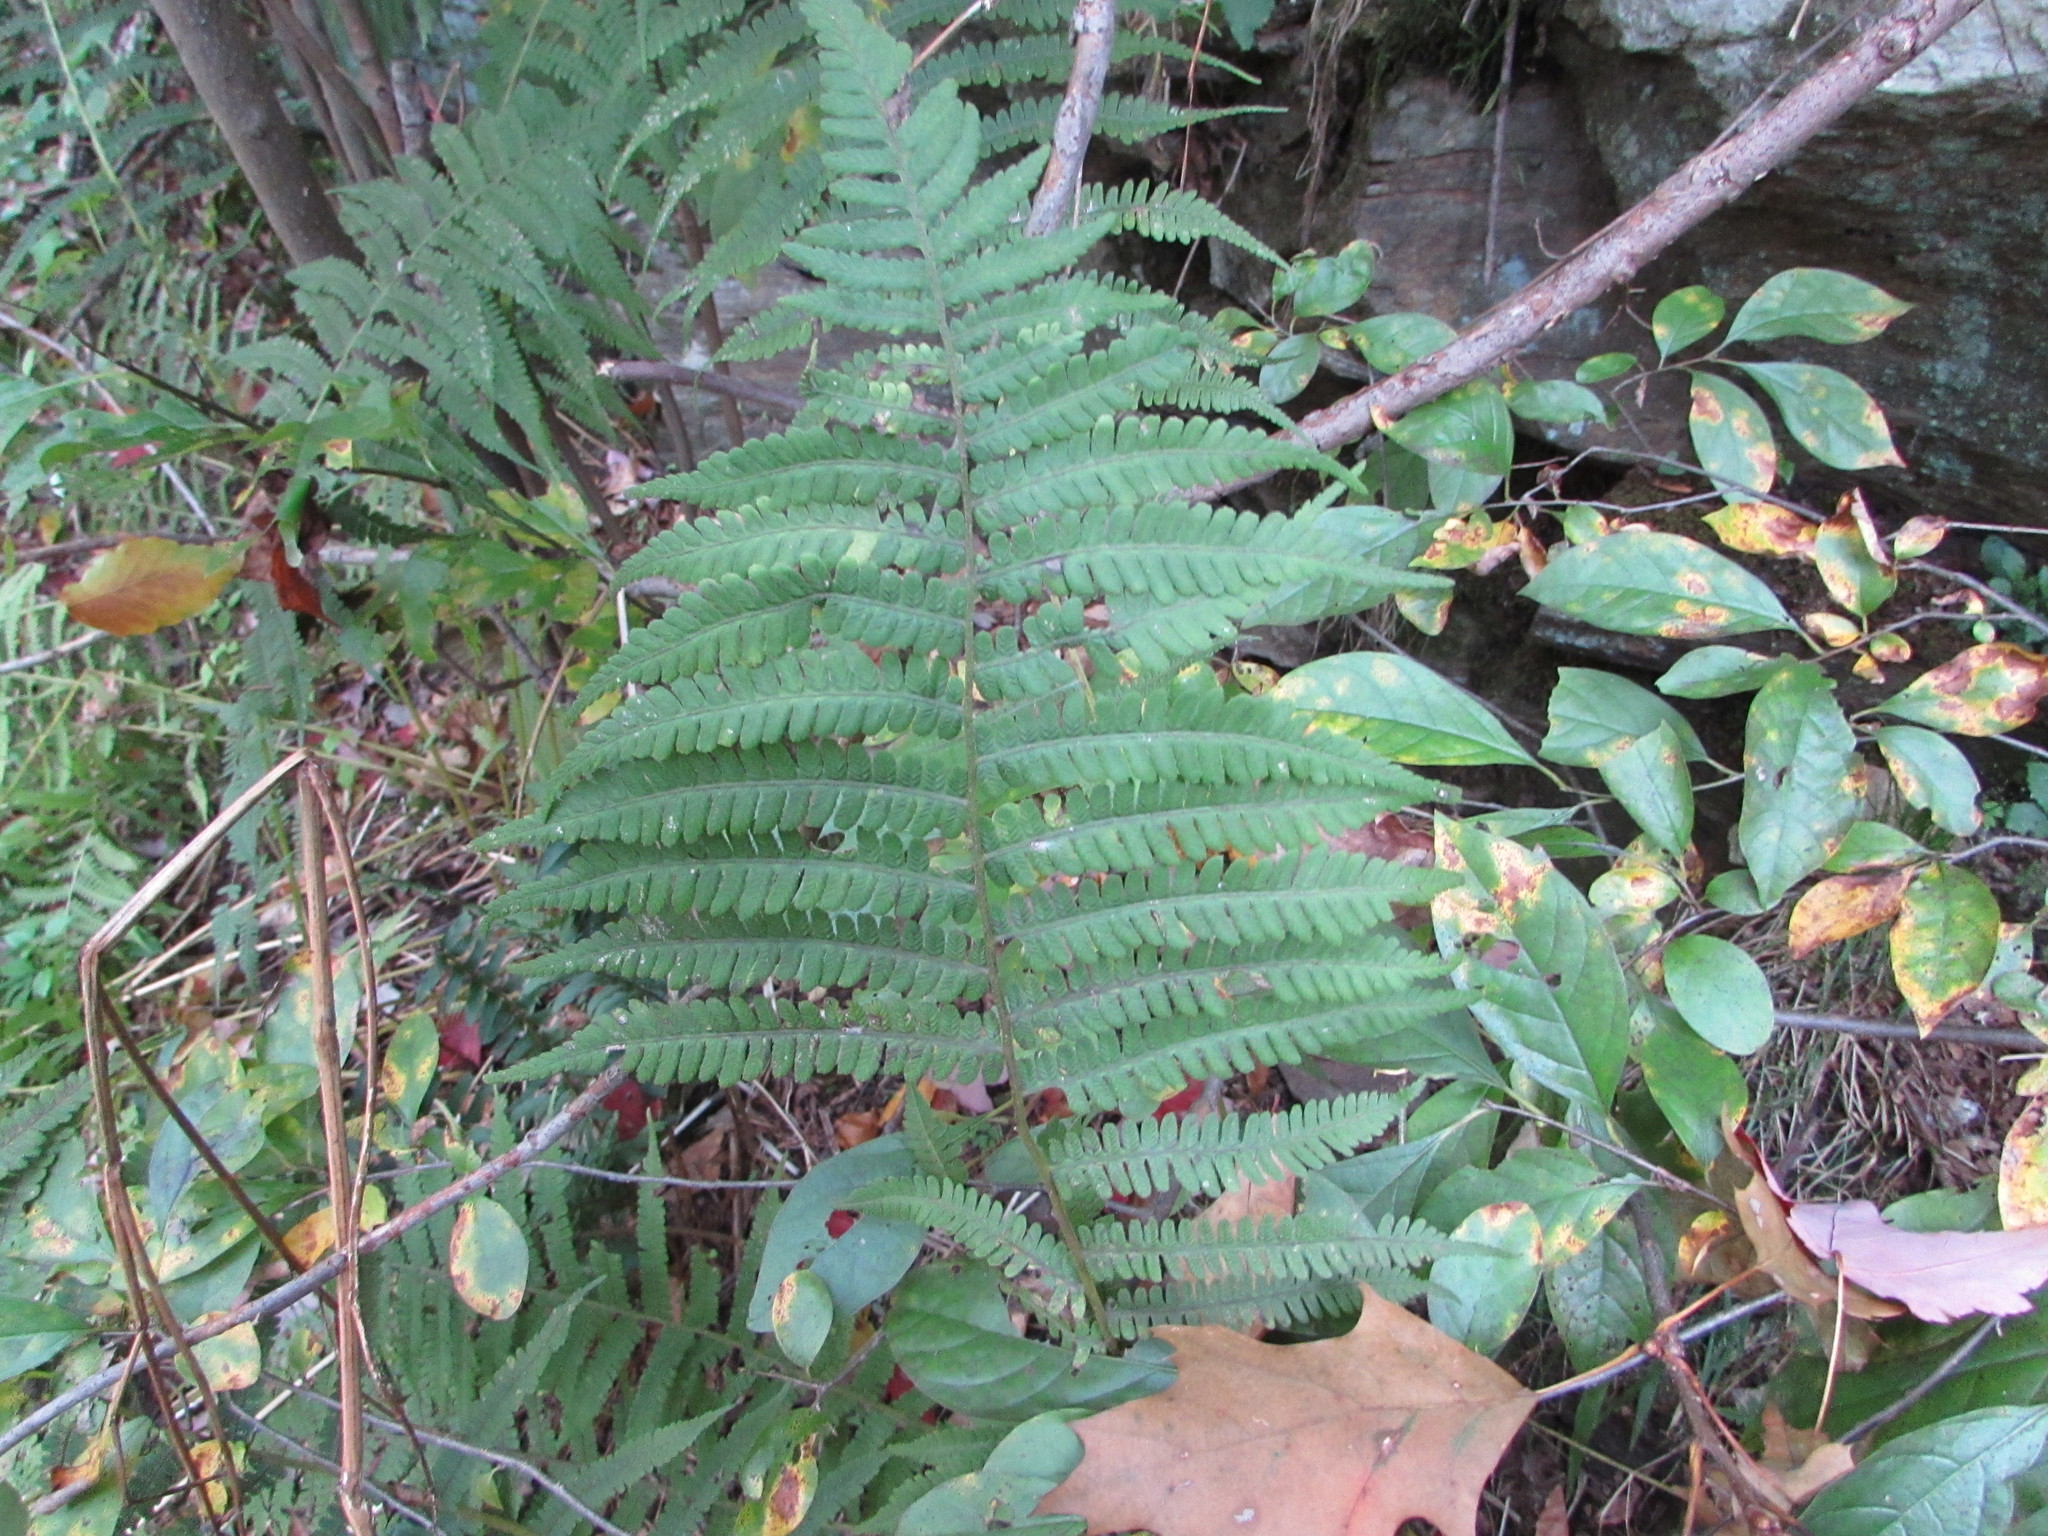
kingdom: Plantae
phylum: Tracheophyta
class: Polypodiopsida
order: Polypodiales
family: Athyriaceae
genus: Deparia
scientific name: Deparia acrostichoides
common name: Silver false spleenwort
